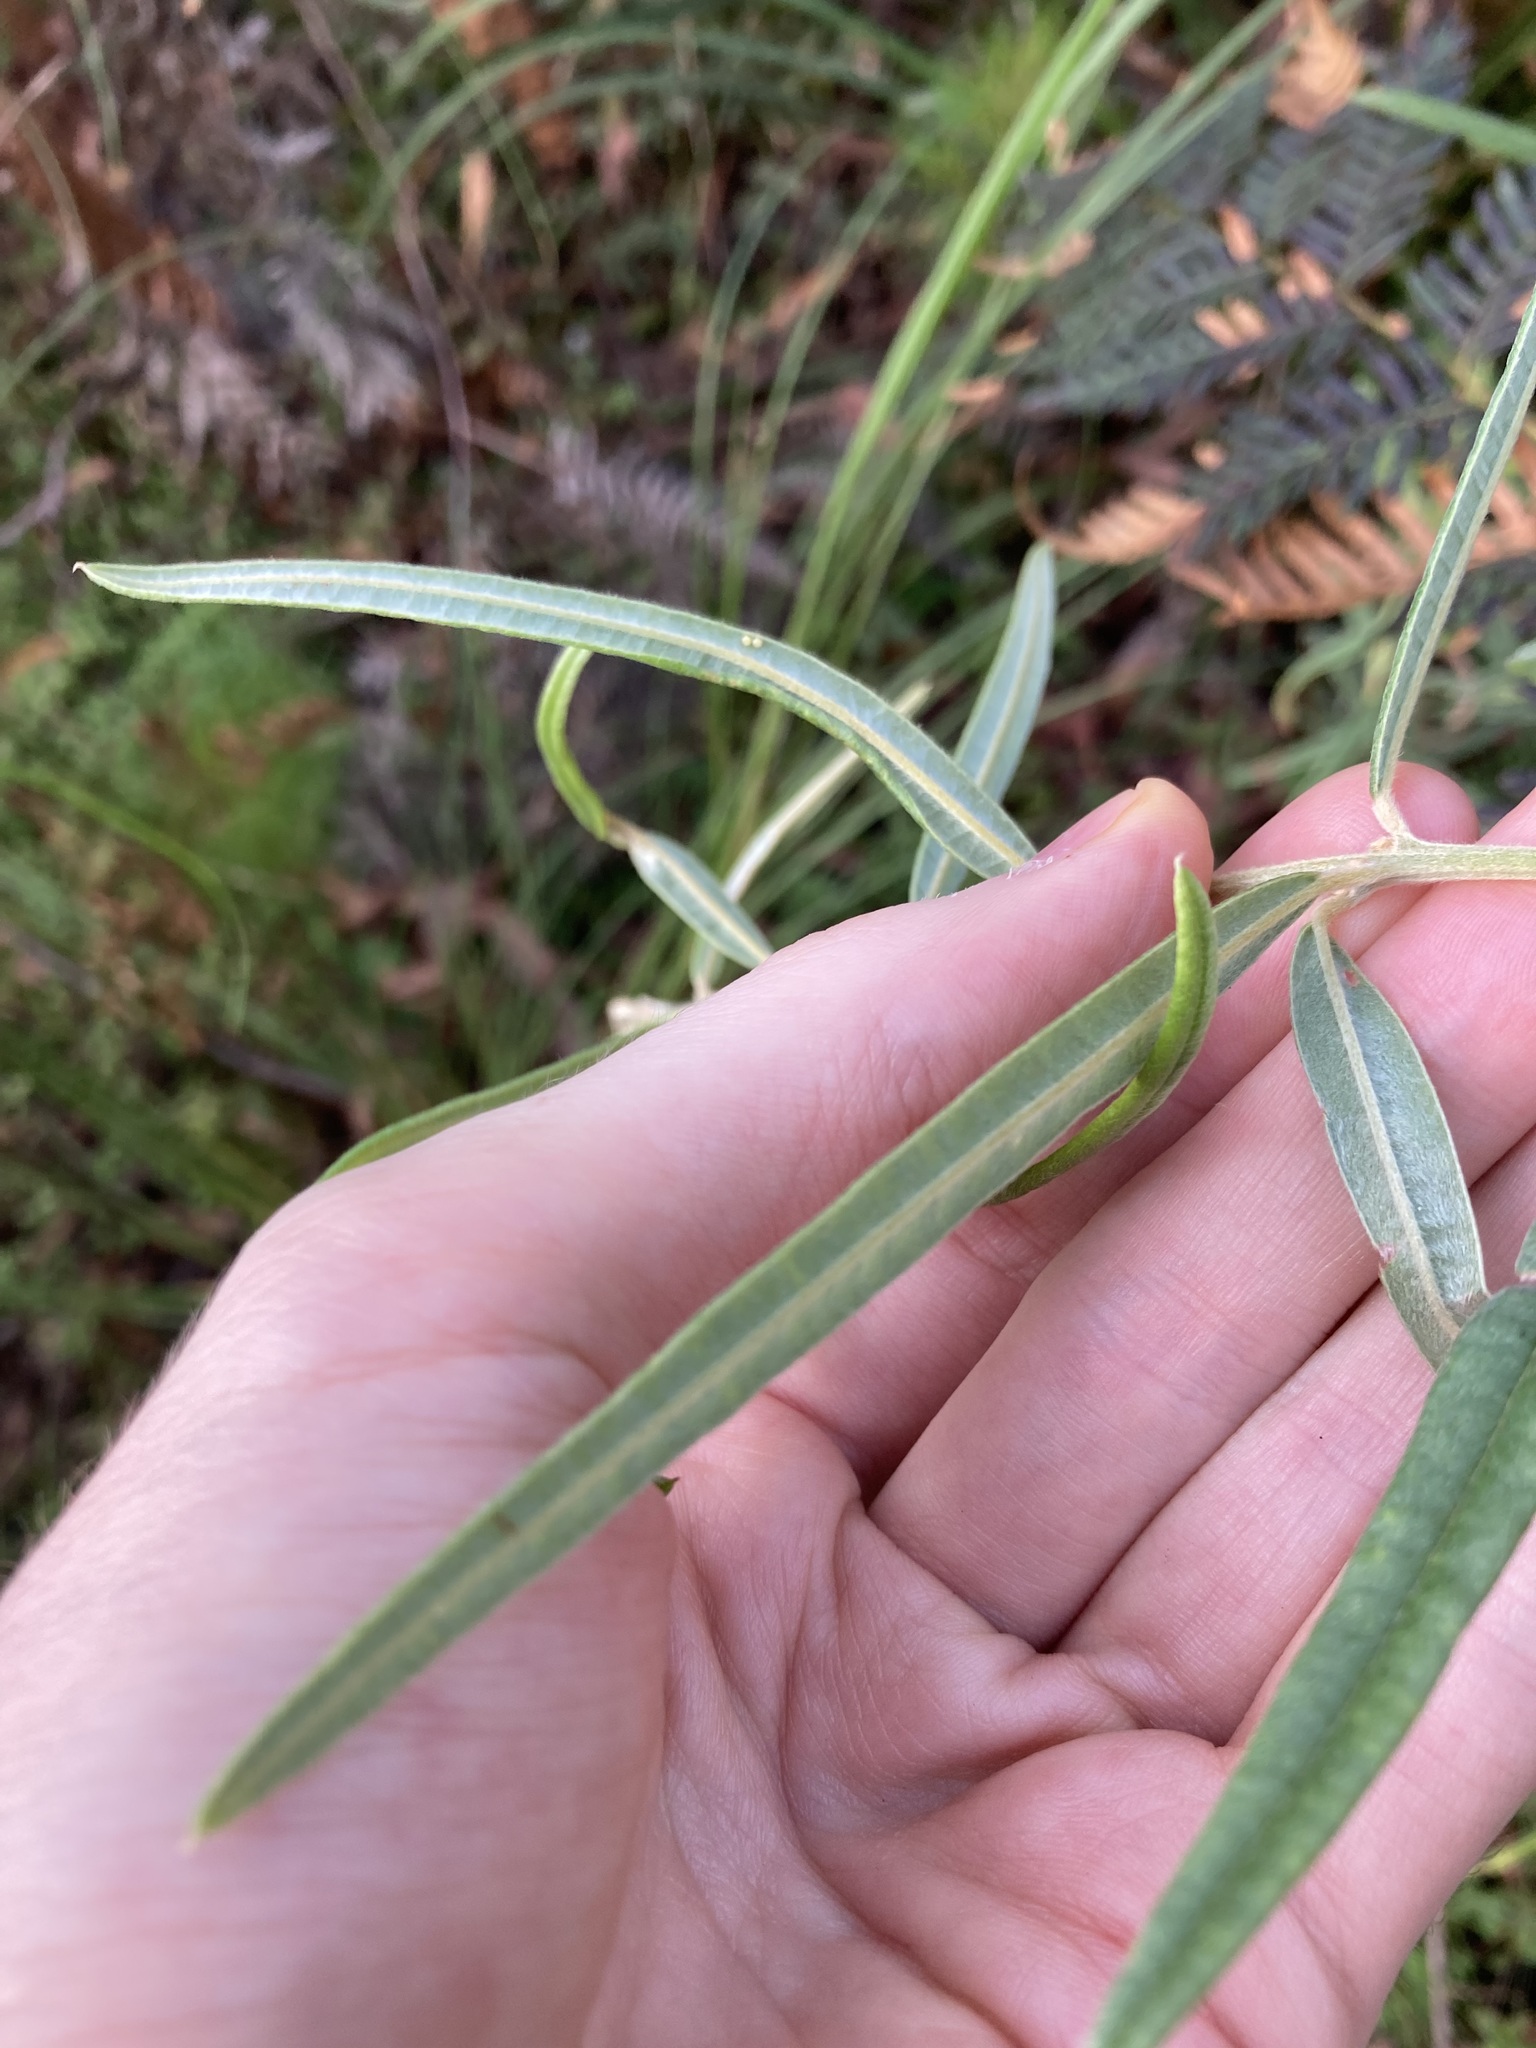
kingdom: Plantae
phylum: Tracheophyta
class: Magnoliopsida
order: Fabales
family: Fabaceae
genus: Oxylobium
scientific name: Oxylobium robustum
